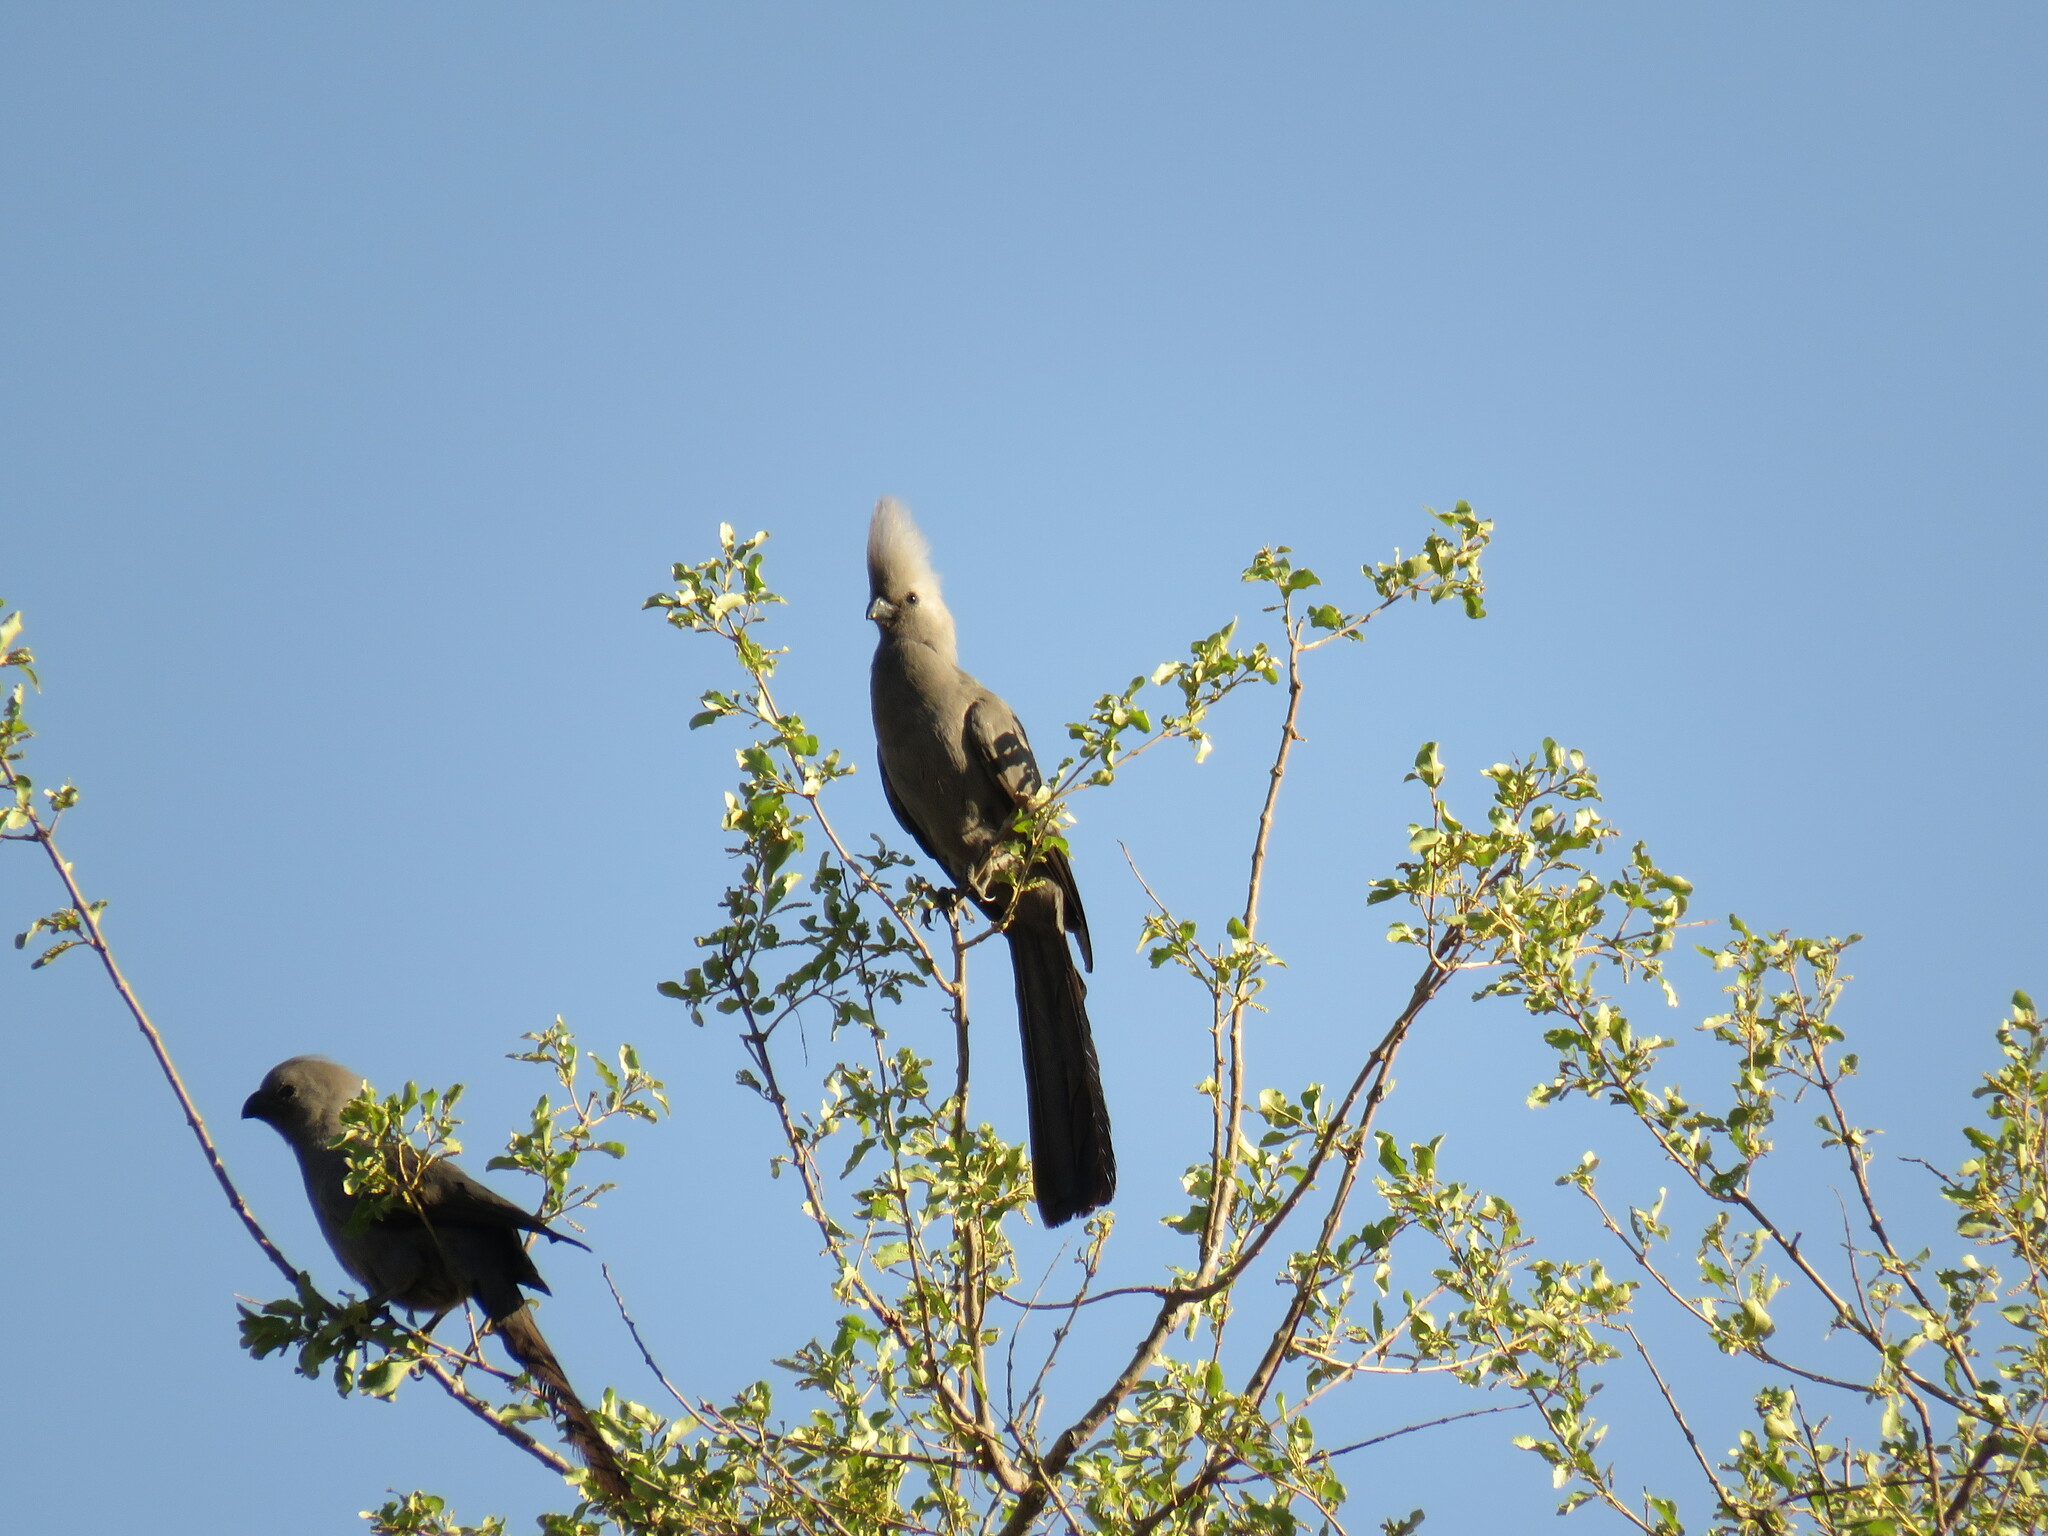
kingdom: Animalia
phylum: Chordata
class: Aves
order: Musophagiformes
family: Musophagidae
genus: Corythaixoides
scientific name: Corythaixoides concolor
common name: Grey go-away-bird
